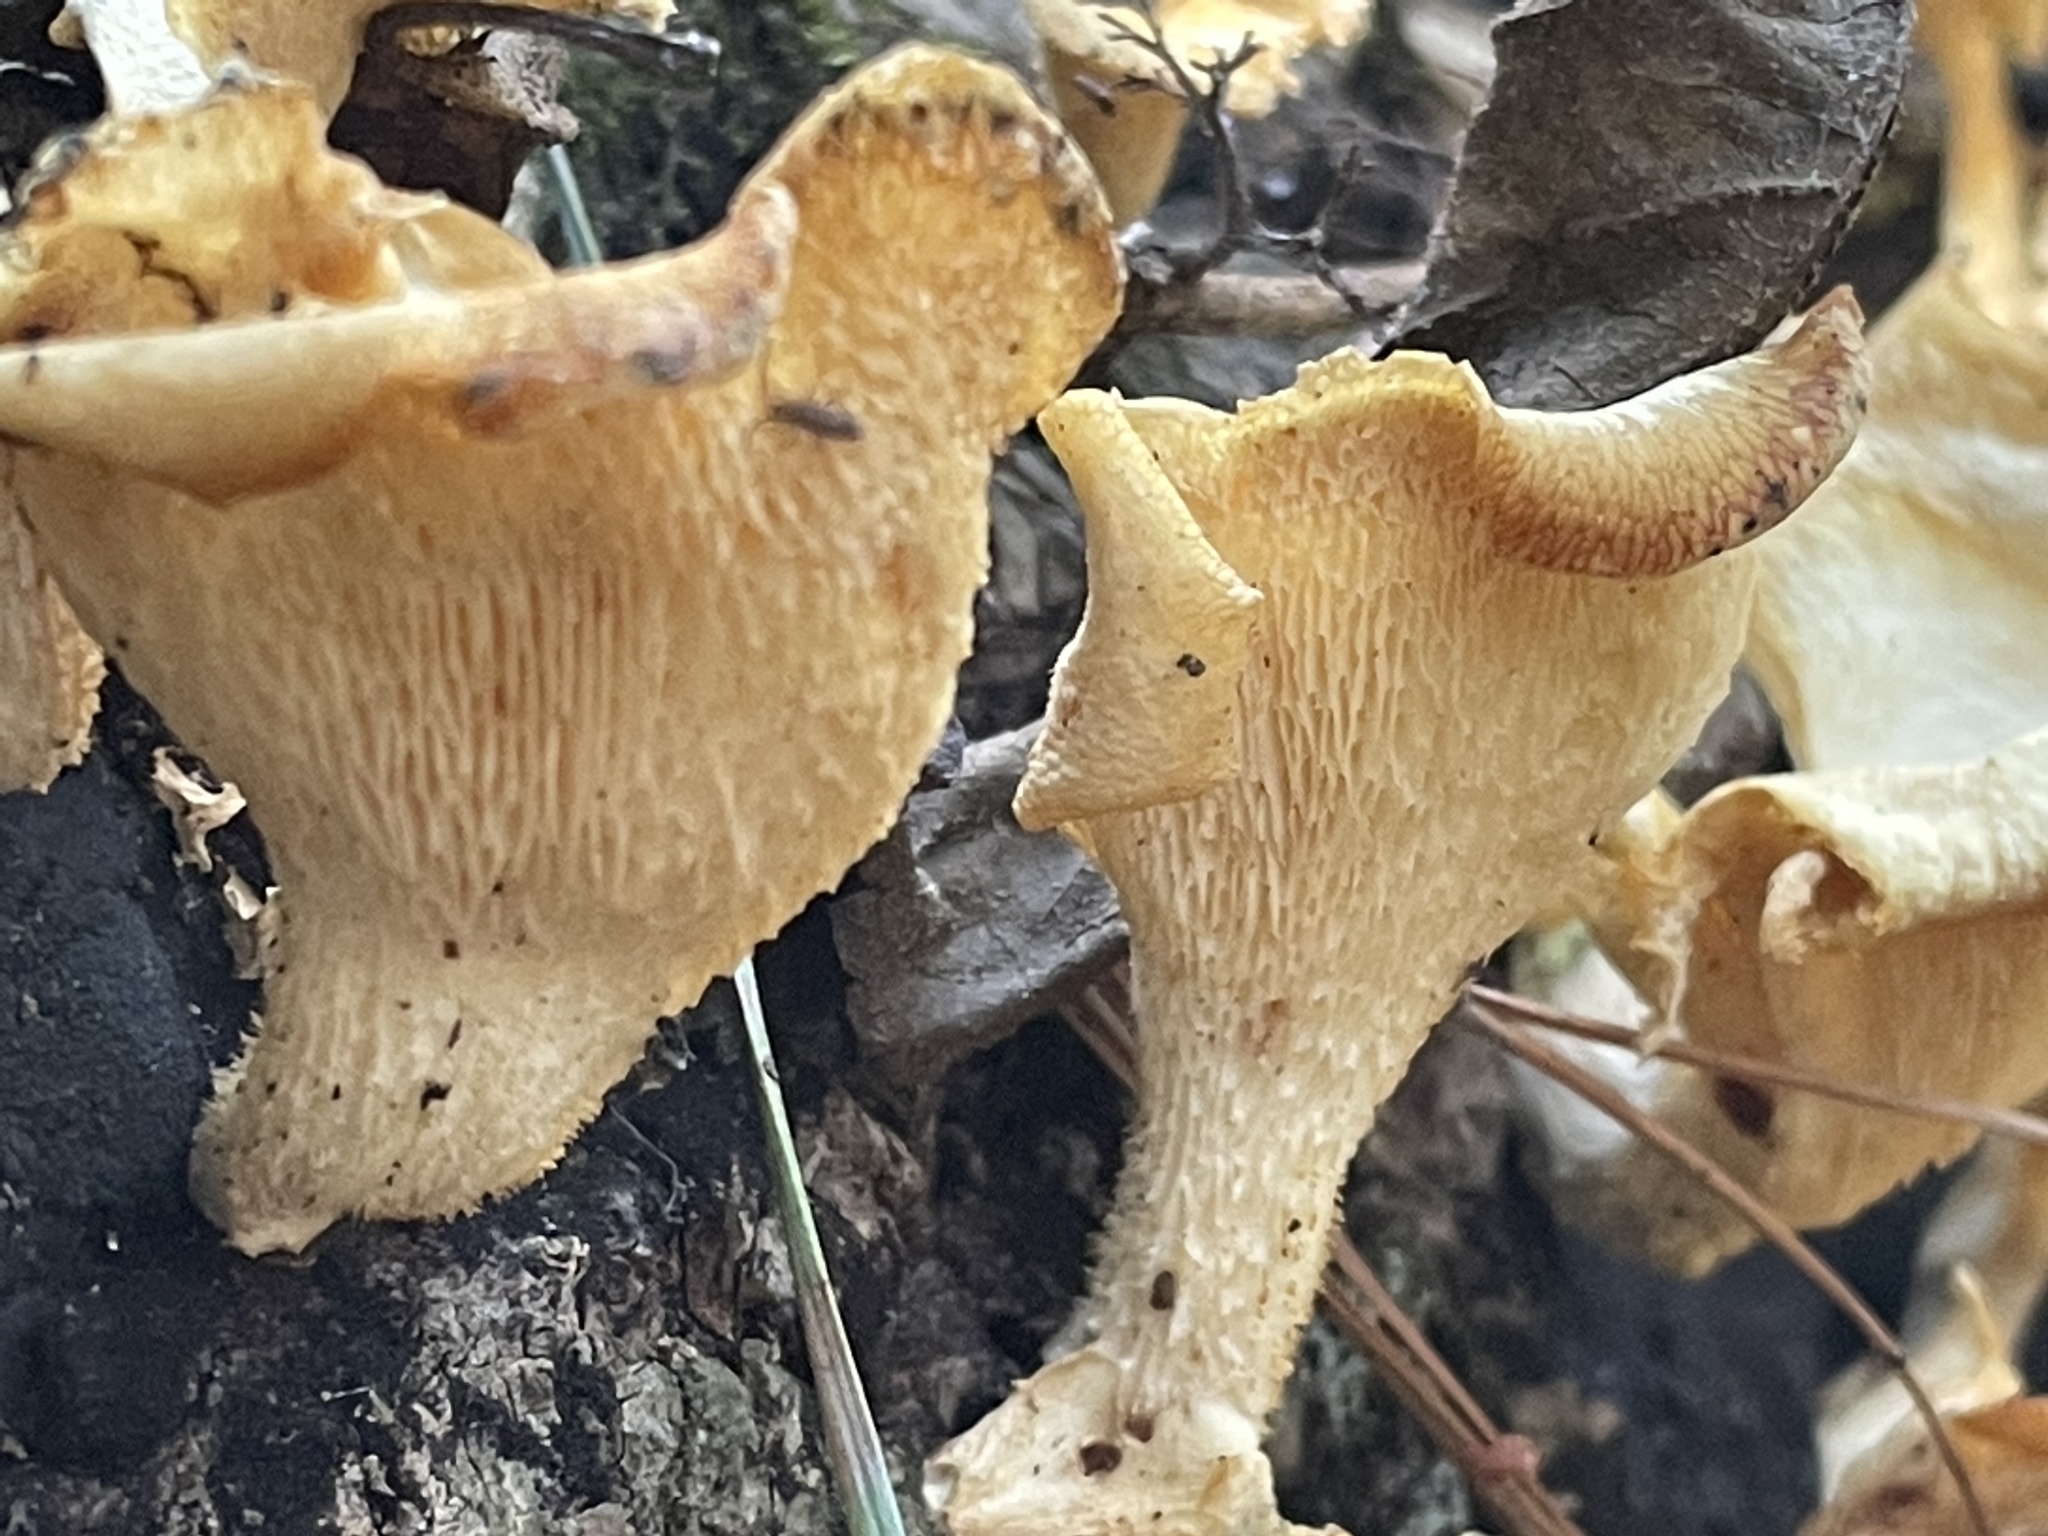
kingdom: Fungi
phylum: Basidiomycota
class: Agaricomycetes
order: Polyporales
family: Polyporaceae
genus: Favolus
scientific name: Favolus tenuiculus
